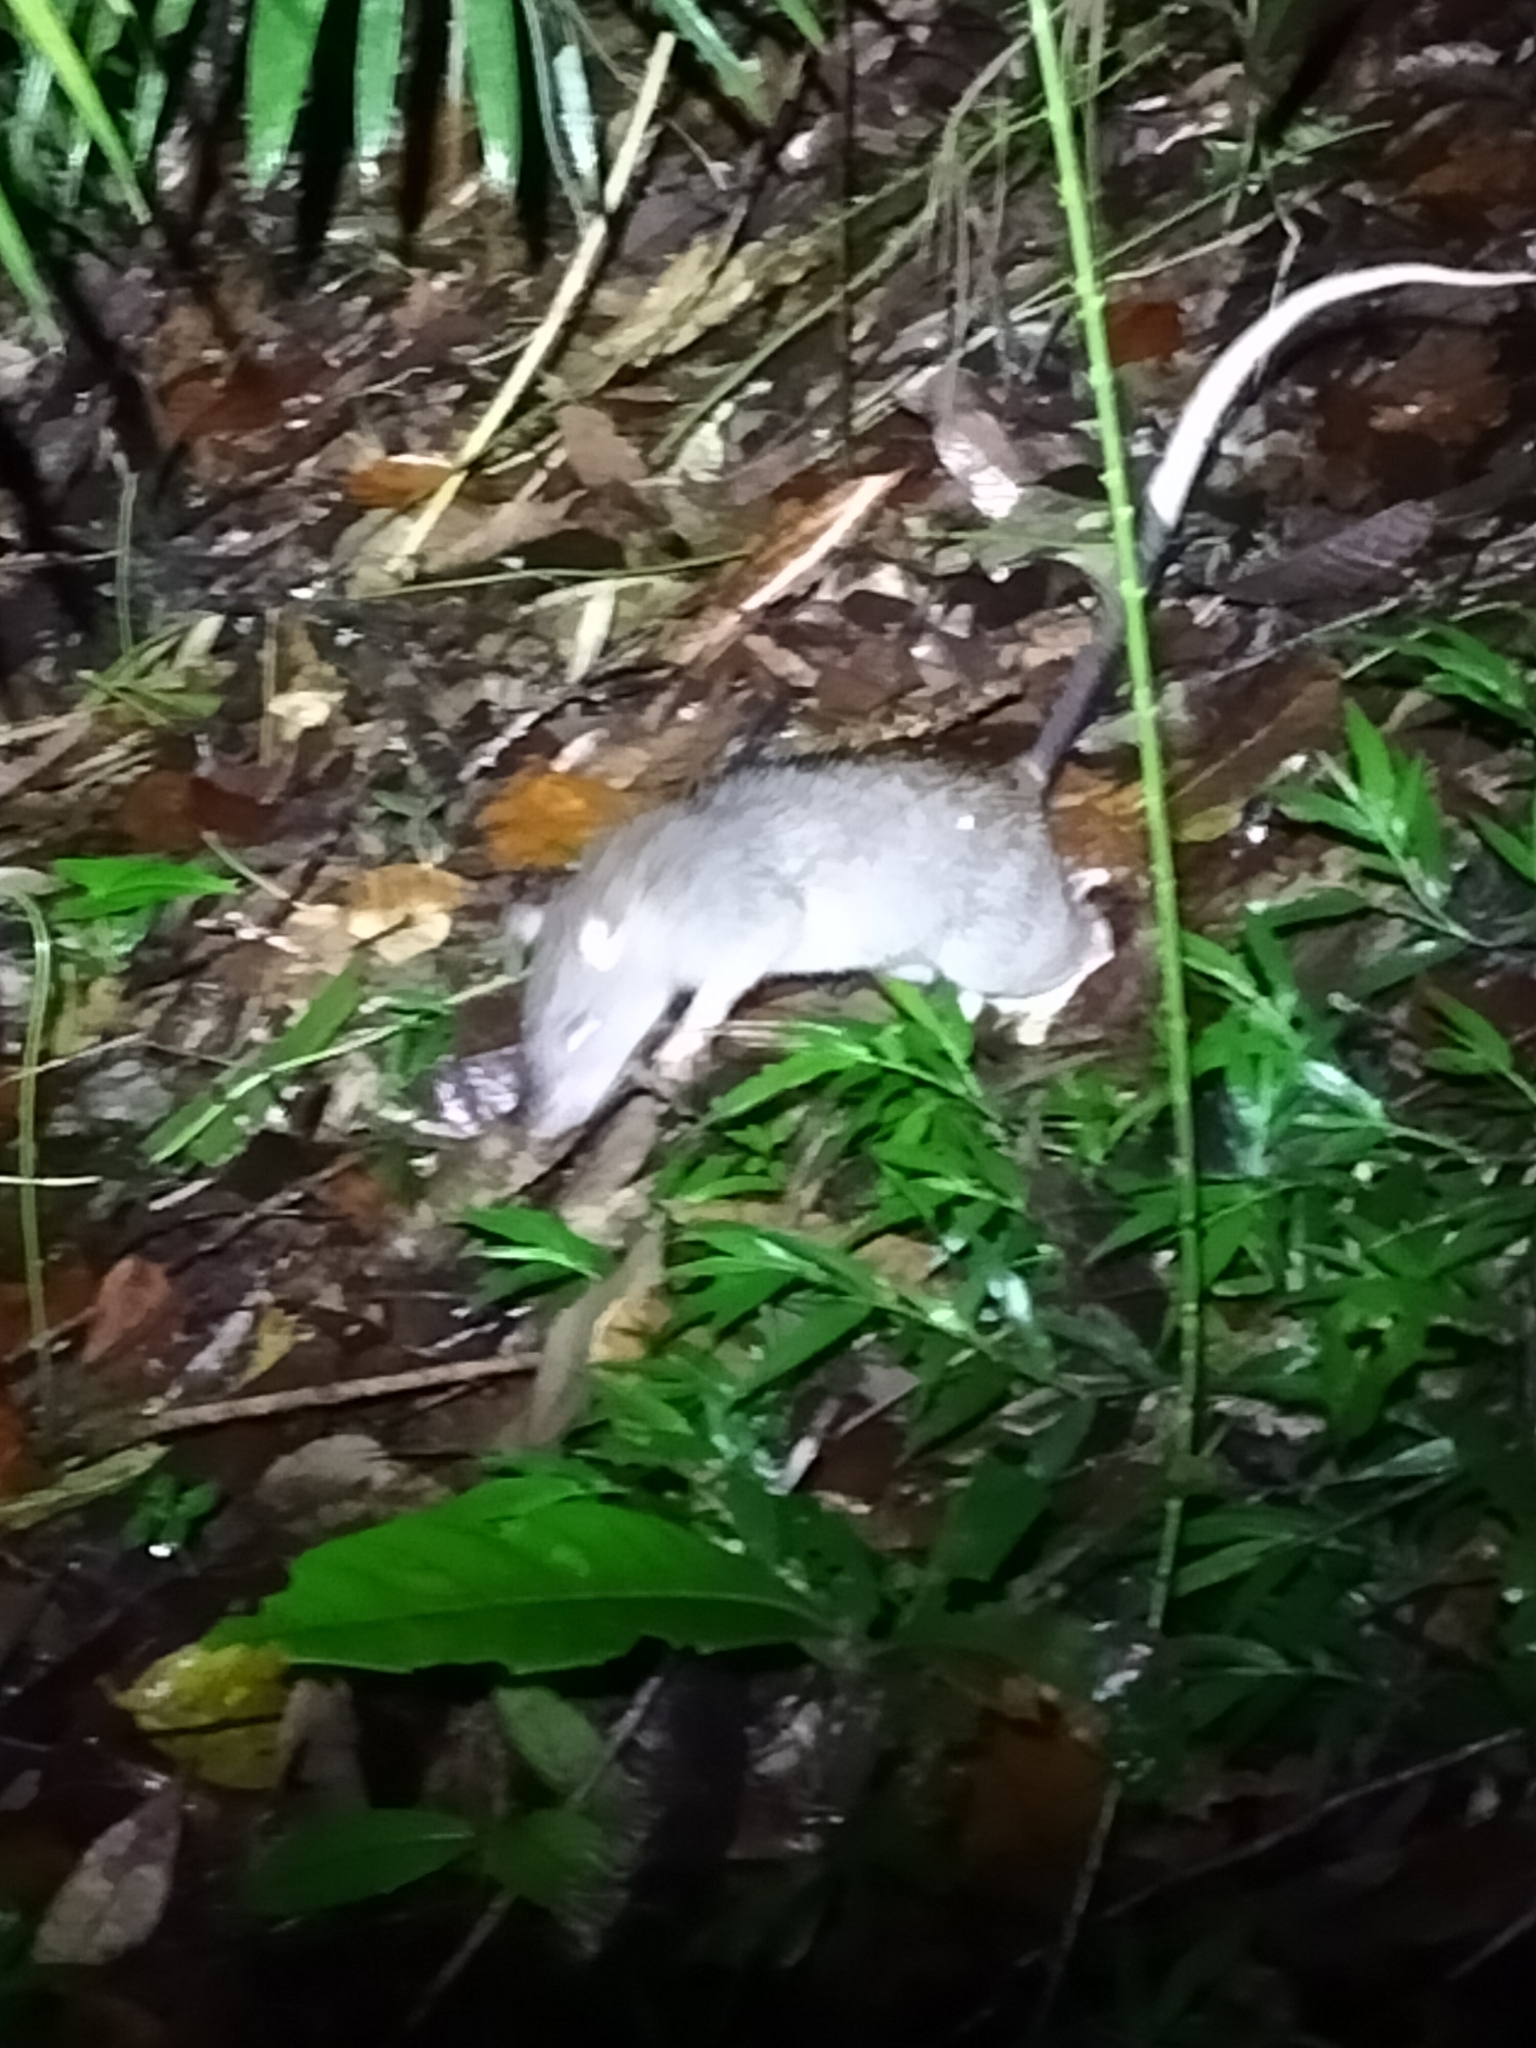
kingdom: Animalia
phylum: Chordata
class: Mammalia
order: Rodentia
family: Muridae
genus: Uromys
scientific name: Uromys caudimaculatus
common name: Giant white-tailed uromys
